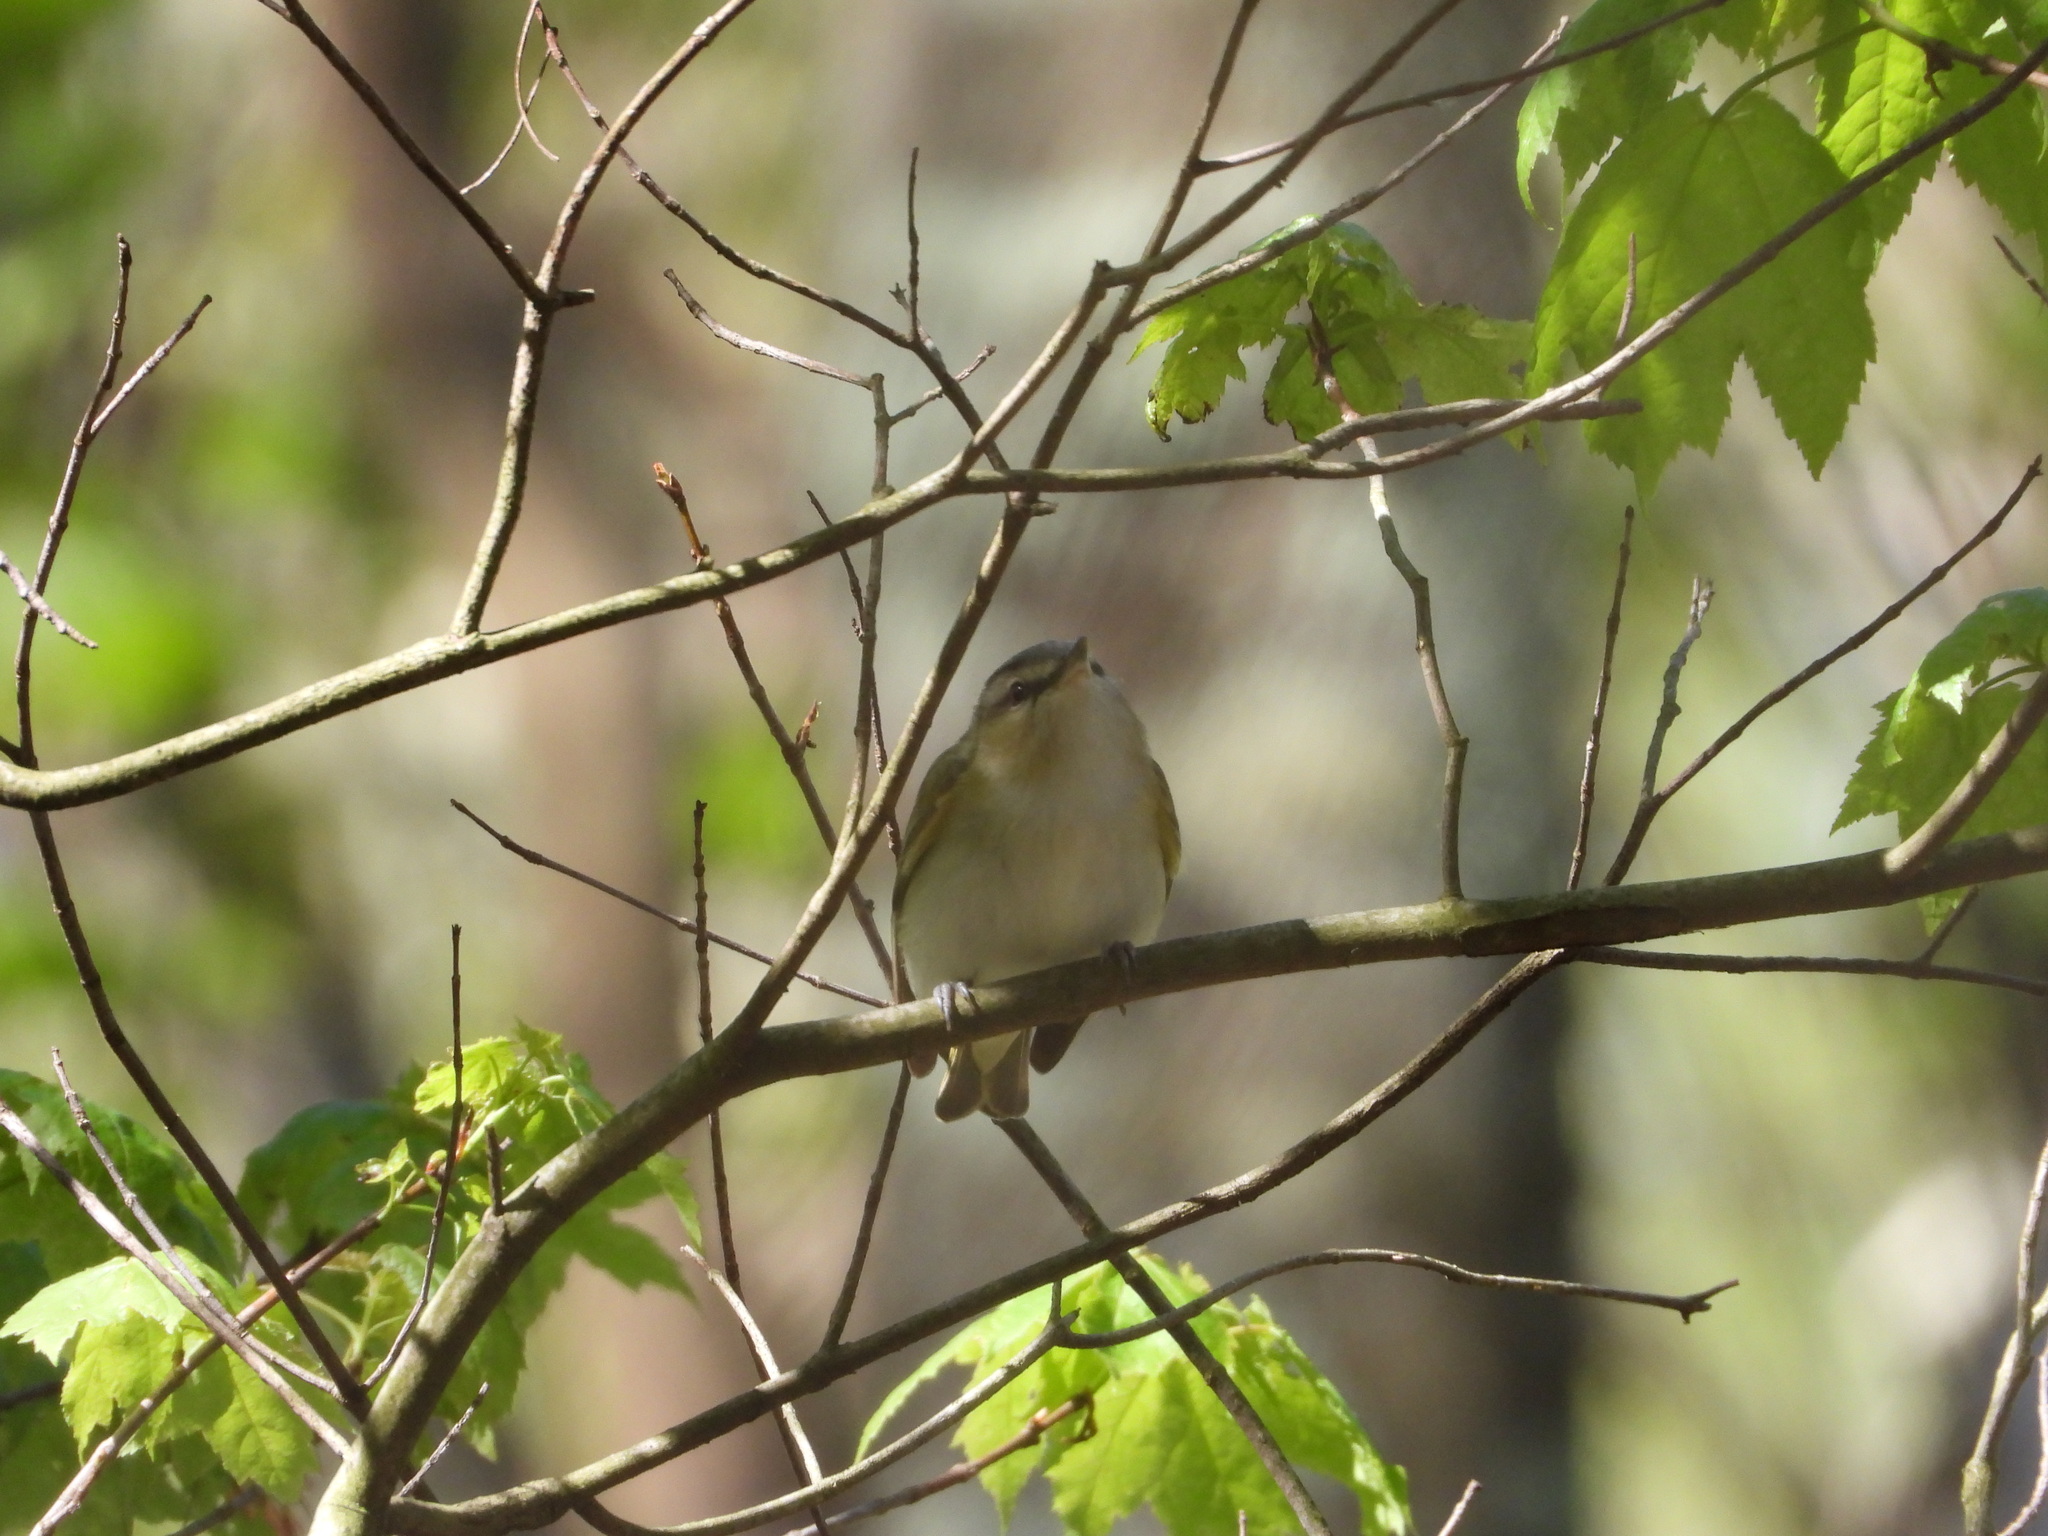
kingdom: Animalia
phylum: Chordata
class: Aves
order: Passeriformes
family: Vireonidae
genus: Vireo
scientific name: Vireo olivaceus
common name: Red-eyed vireo
